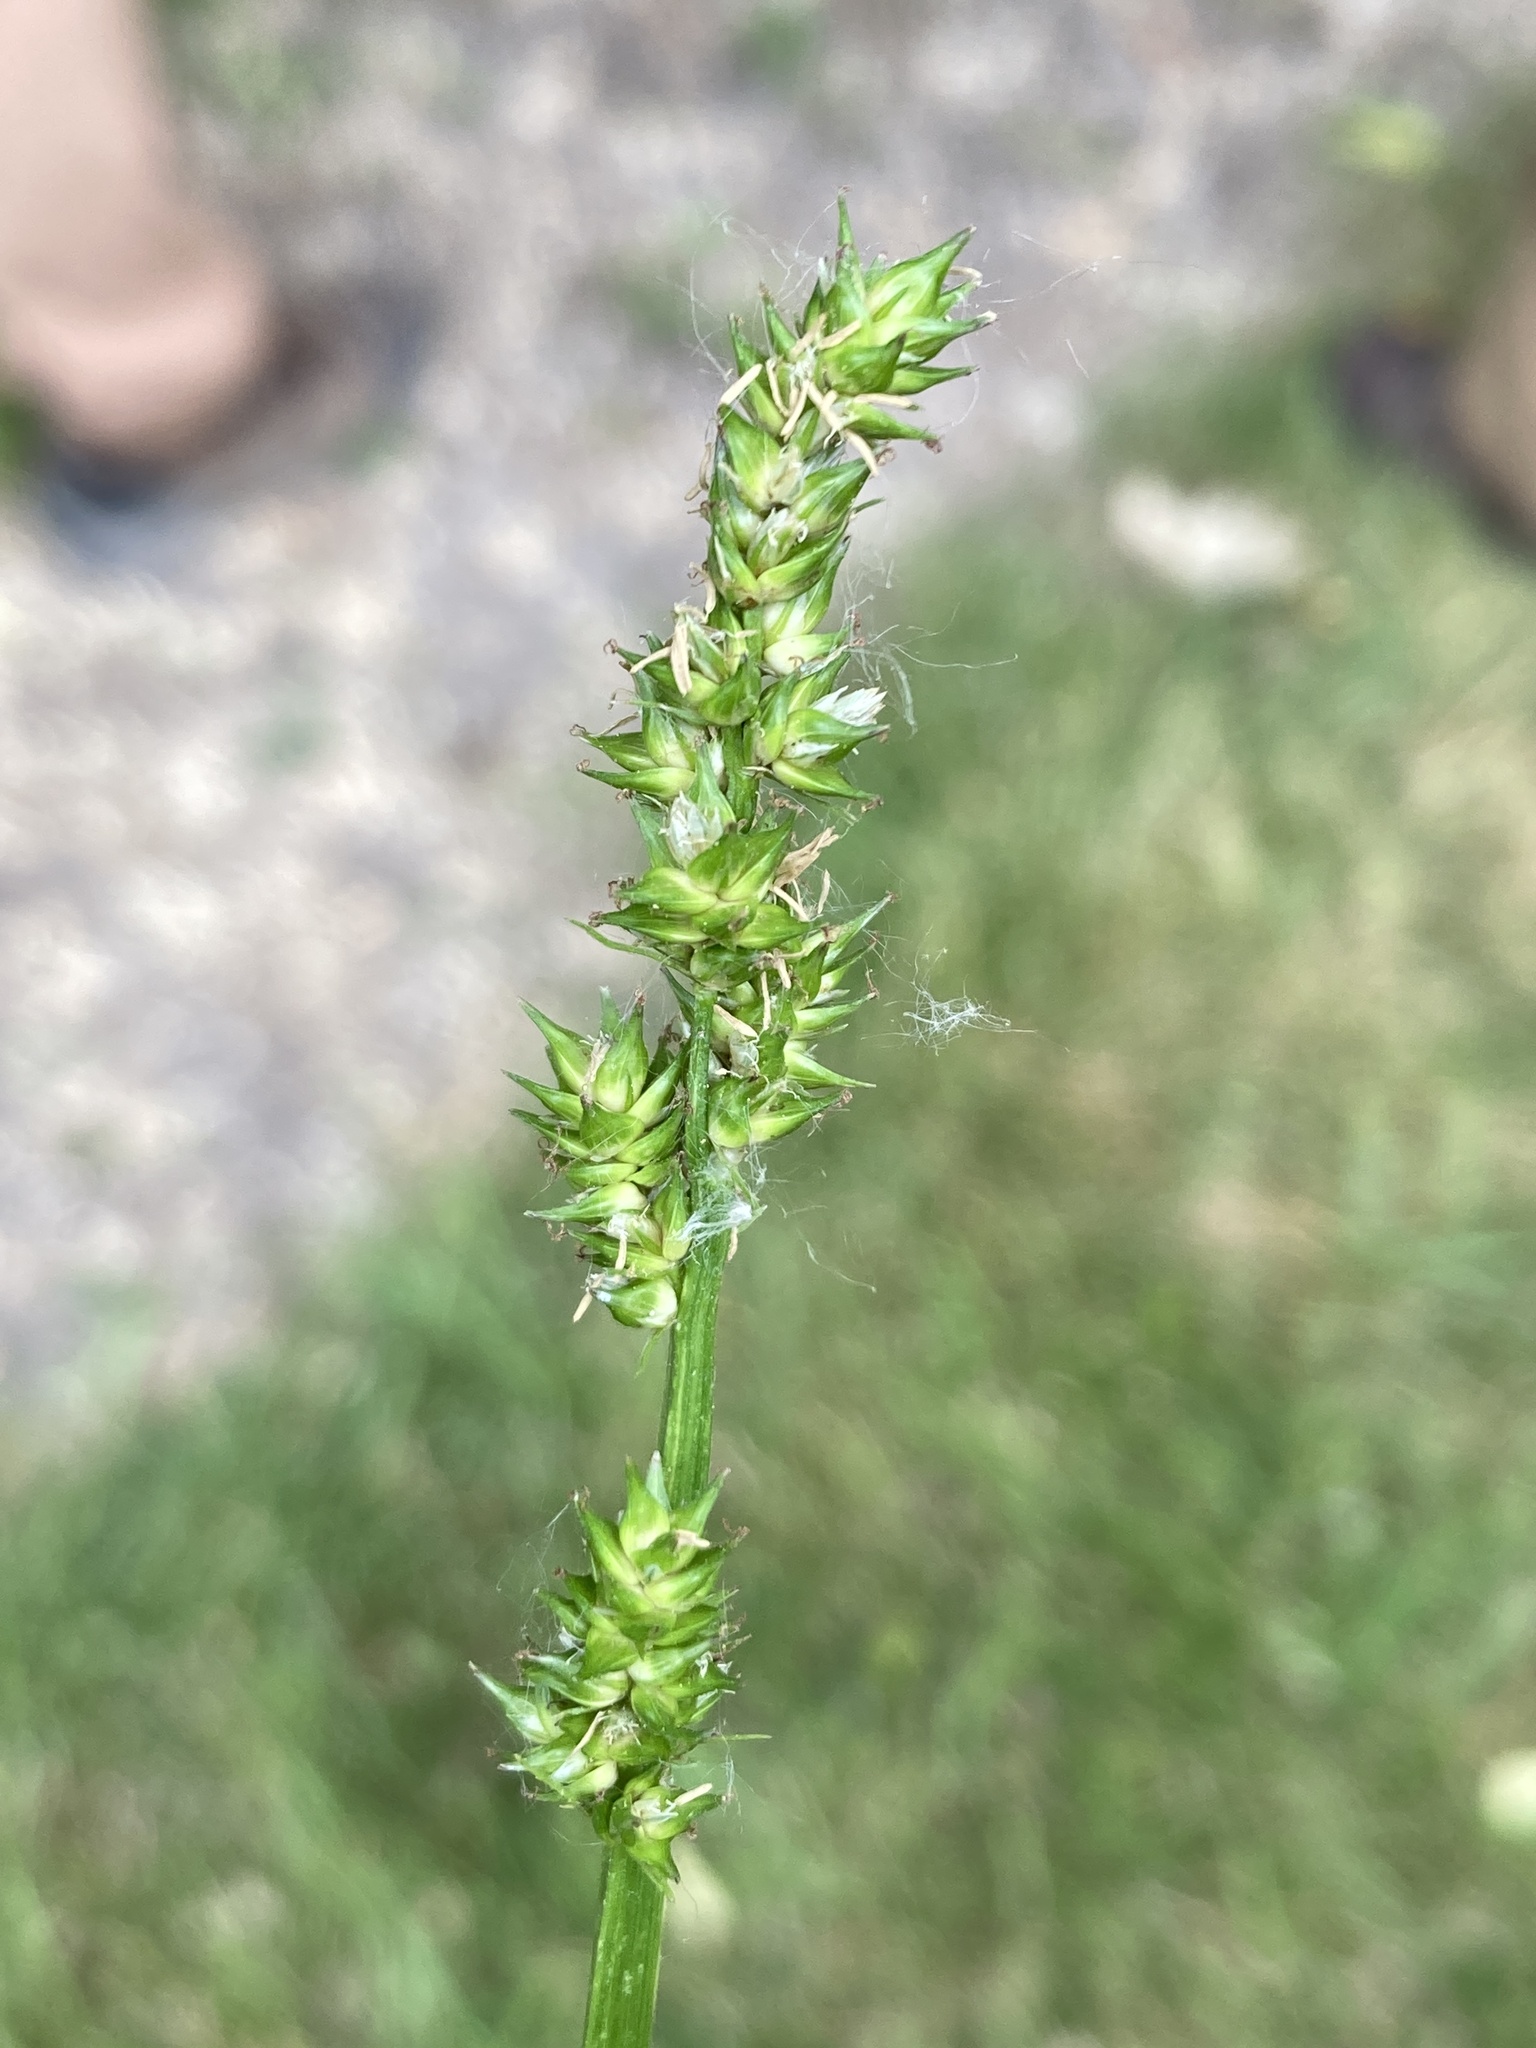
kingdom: Plantae
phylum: Tracheophyta
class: Liliopsida
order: Poales
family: Cyperaceae
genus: Carex
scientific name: Carex conjuncta
